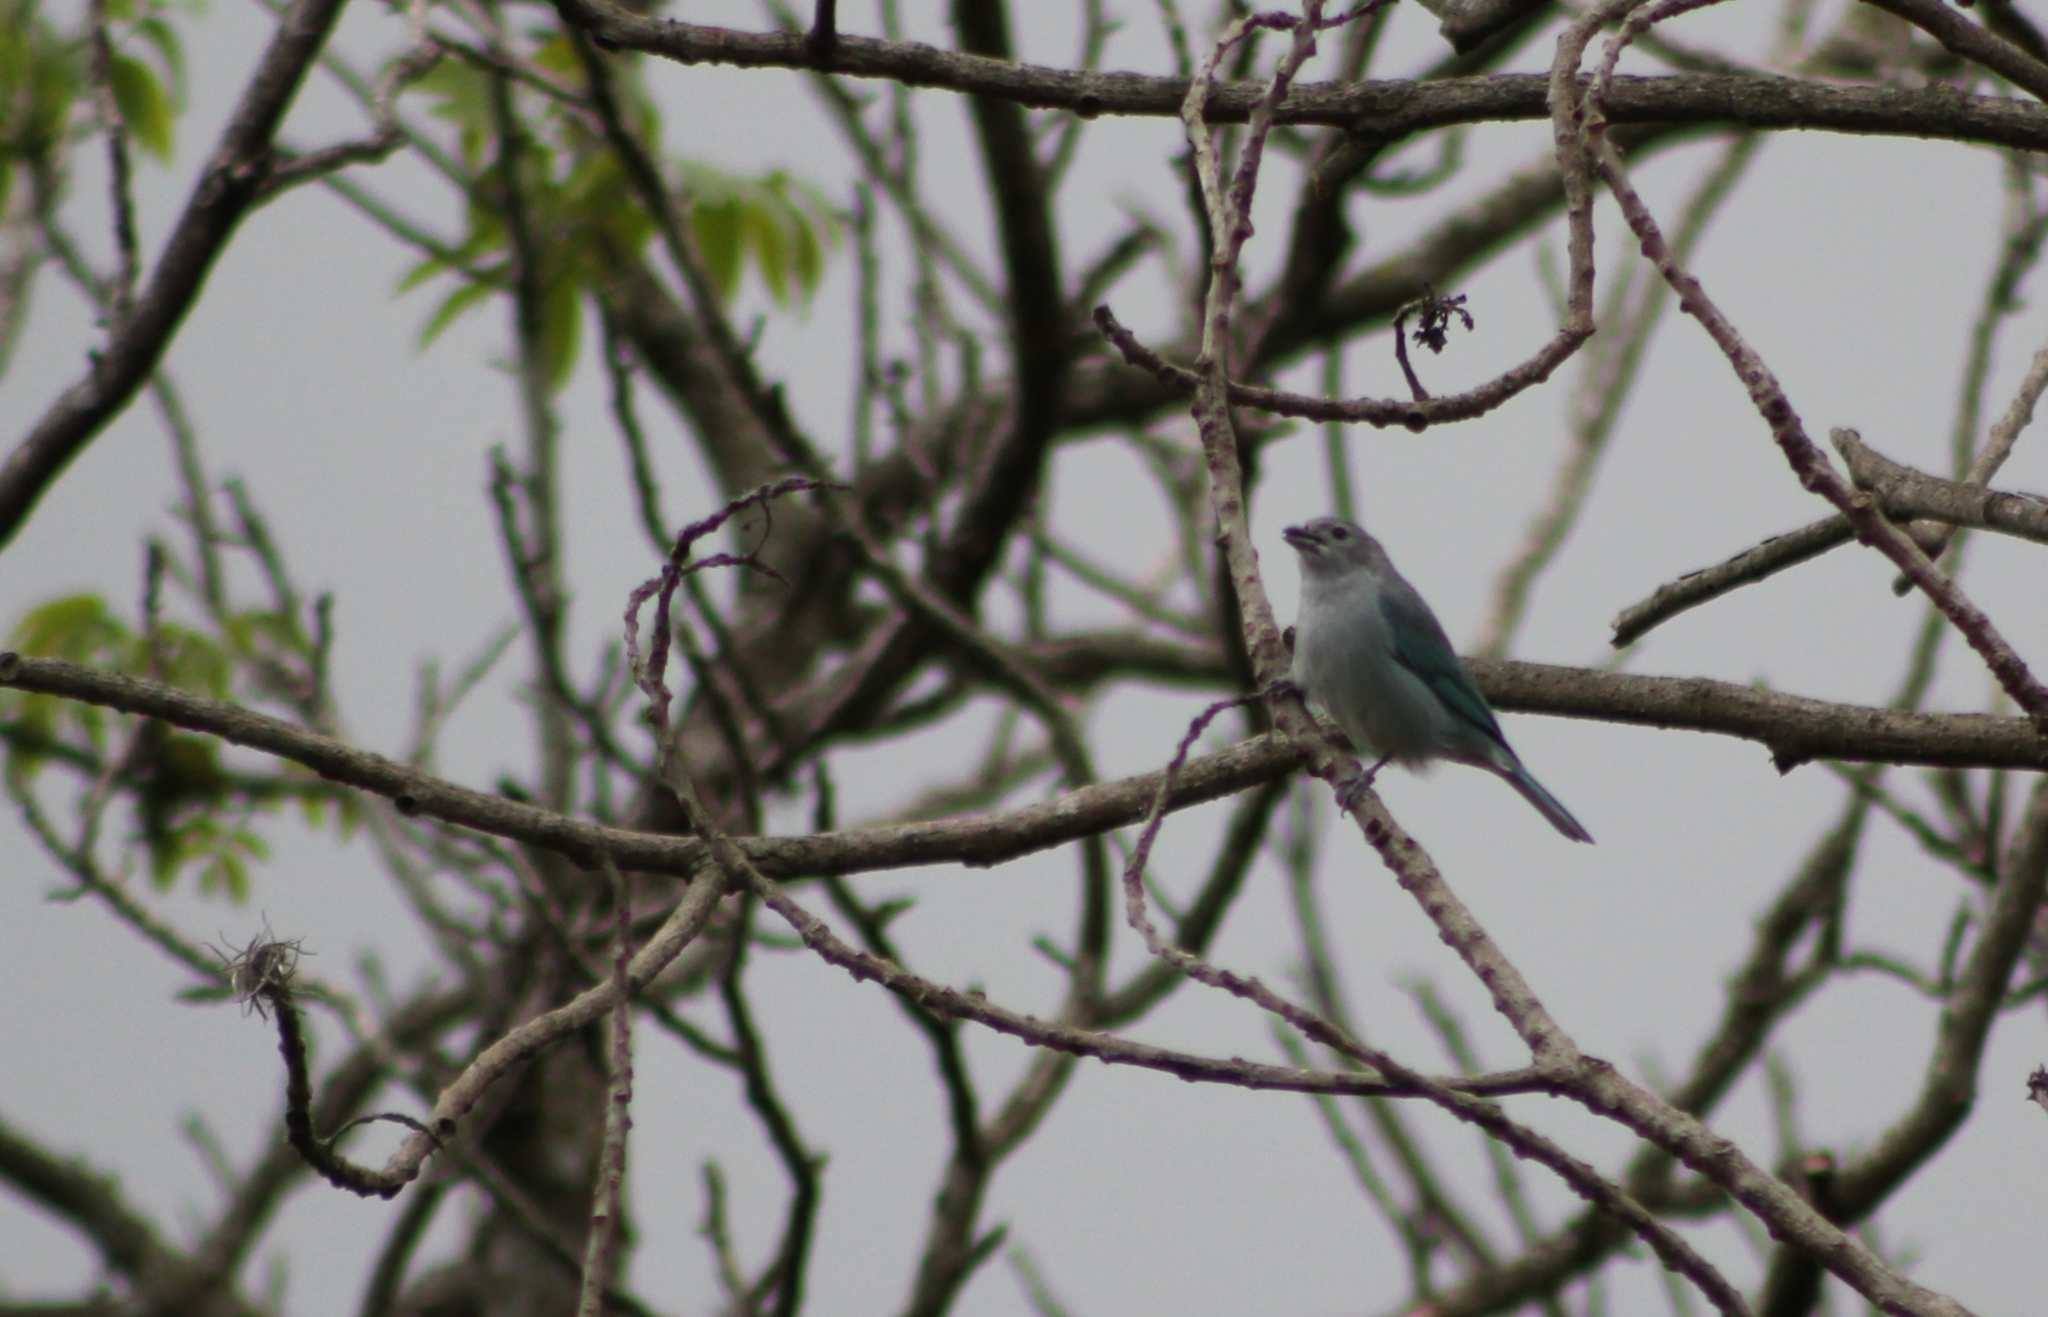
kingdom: Animalia
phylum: Chordata
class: Aves
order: Passeriformes
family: Thraupidae
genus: Thraupis
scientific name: Thraupis sayaca
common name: Sayaca tanager
